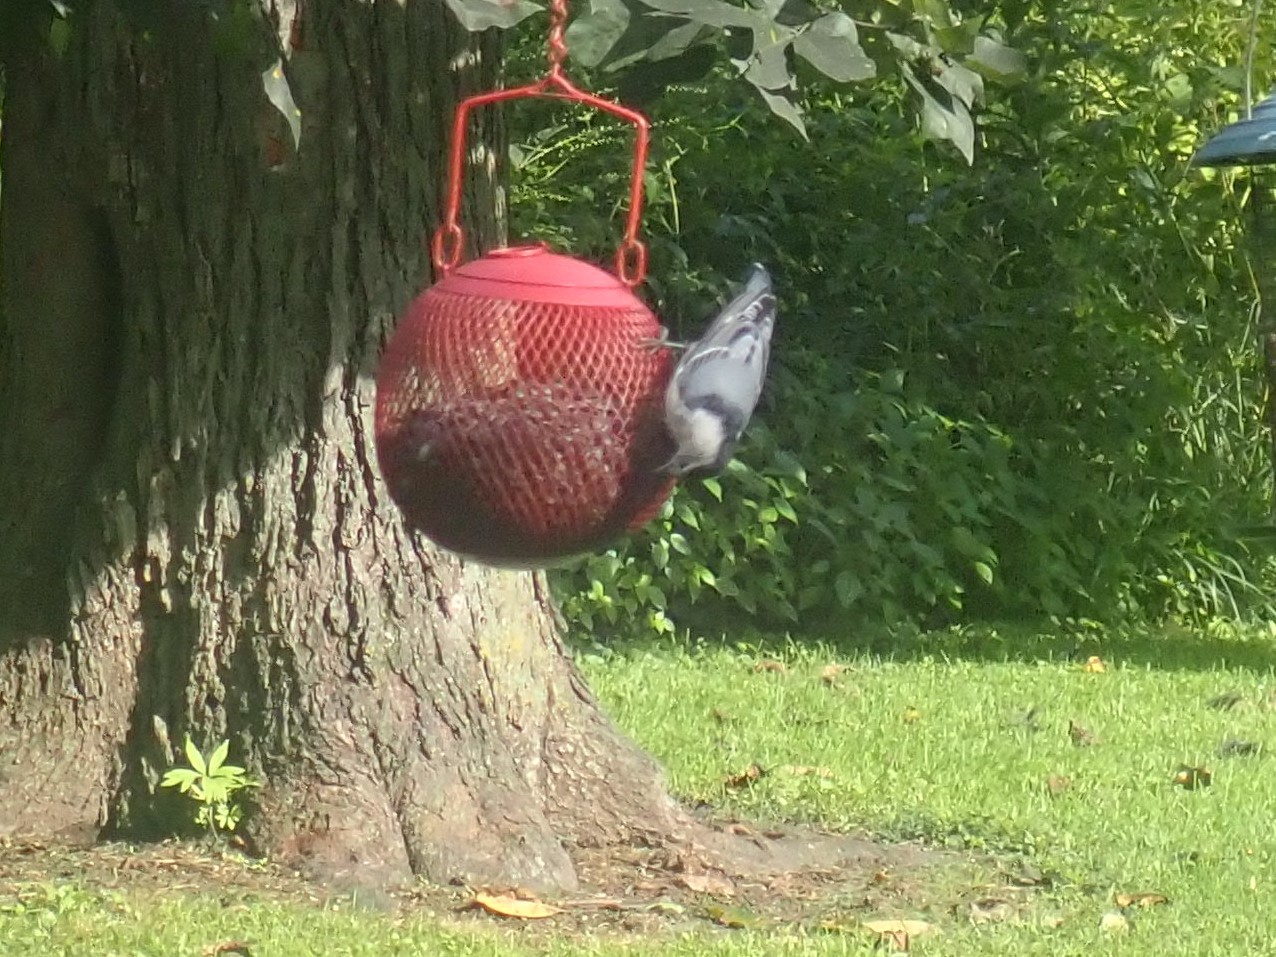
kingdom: Animalia
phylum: Chordata
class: Aves
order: Passeriformes
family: Sittidae
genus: Sitta
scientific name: Sitta carolinensis
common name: White-breasted nuthatch
